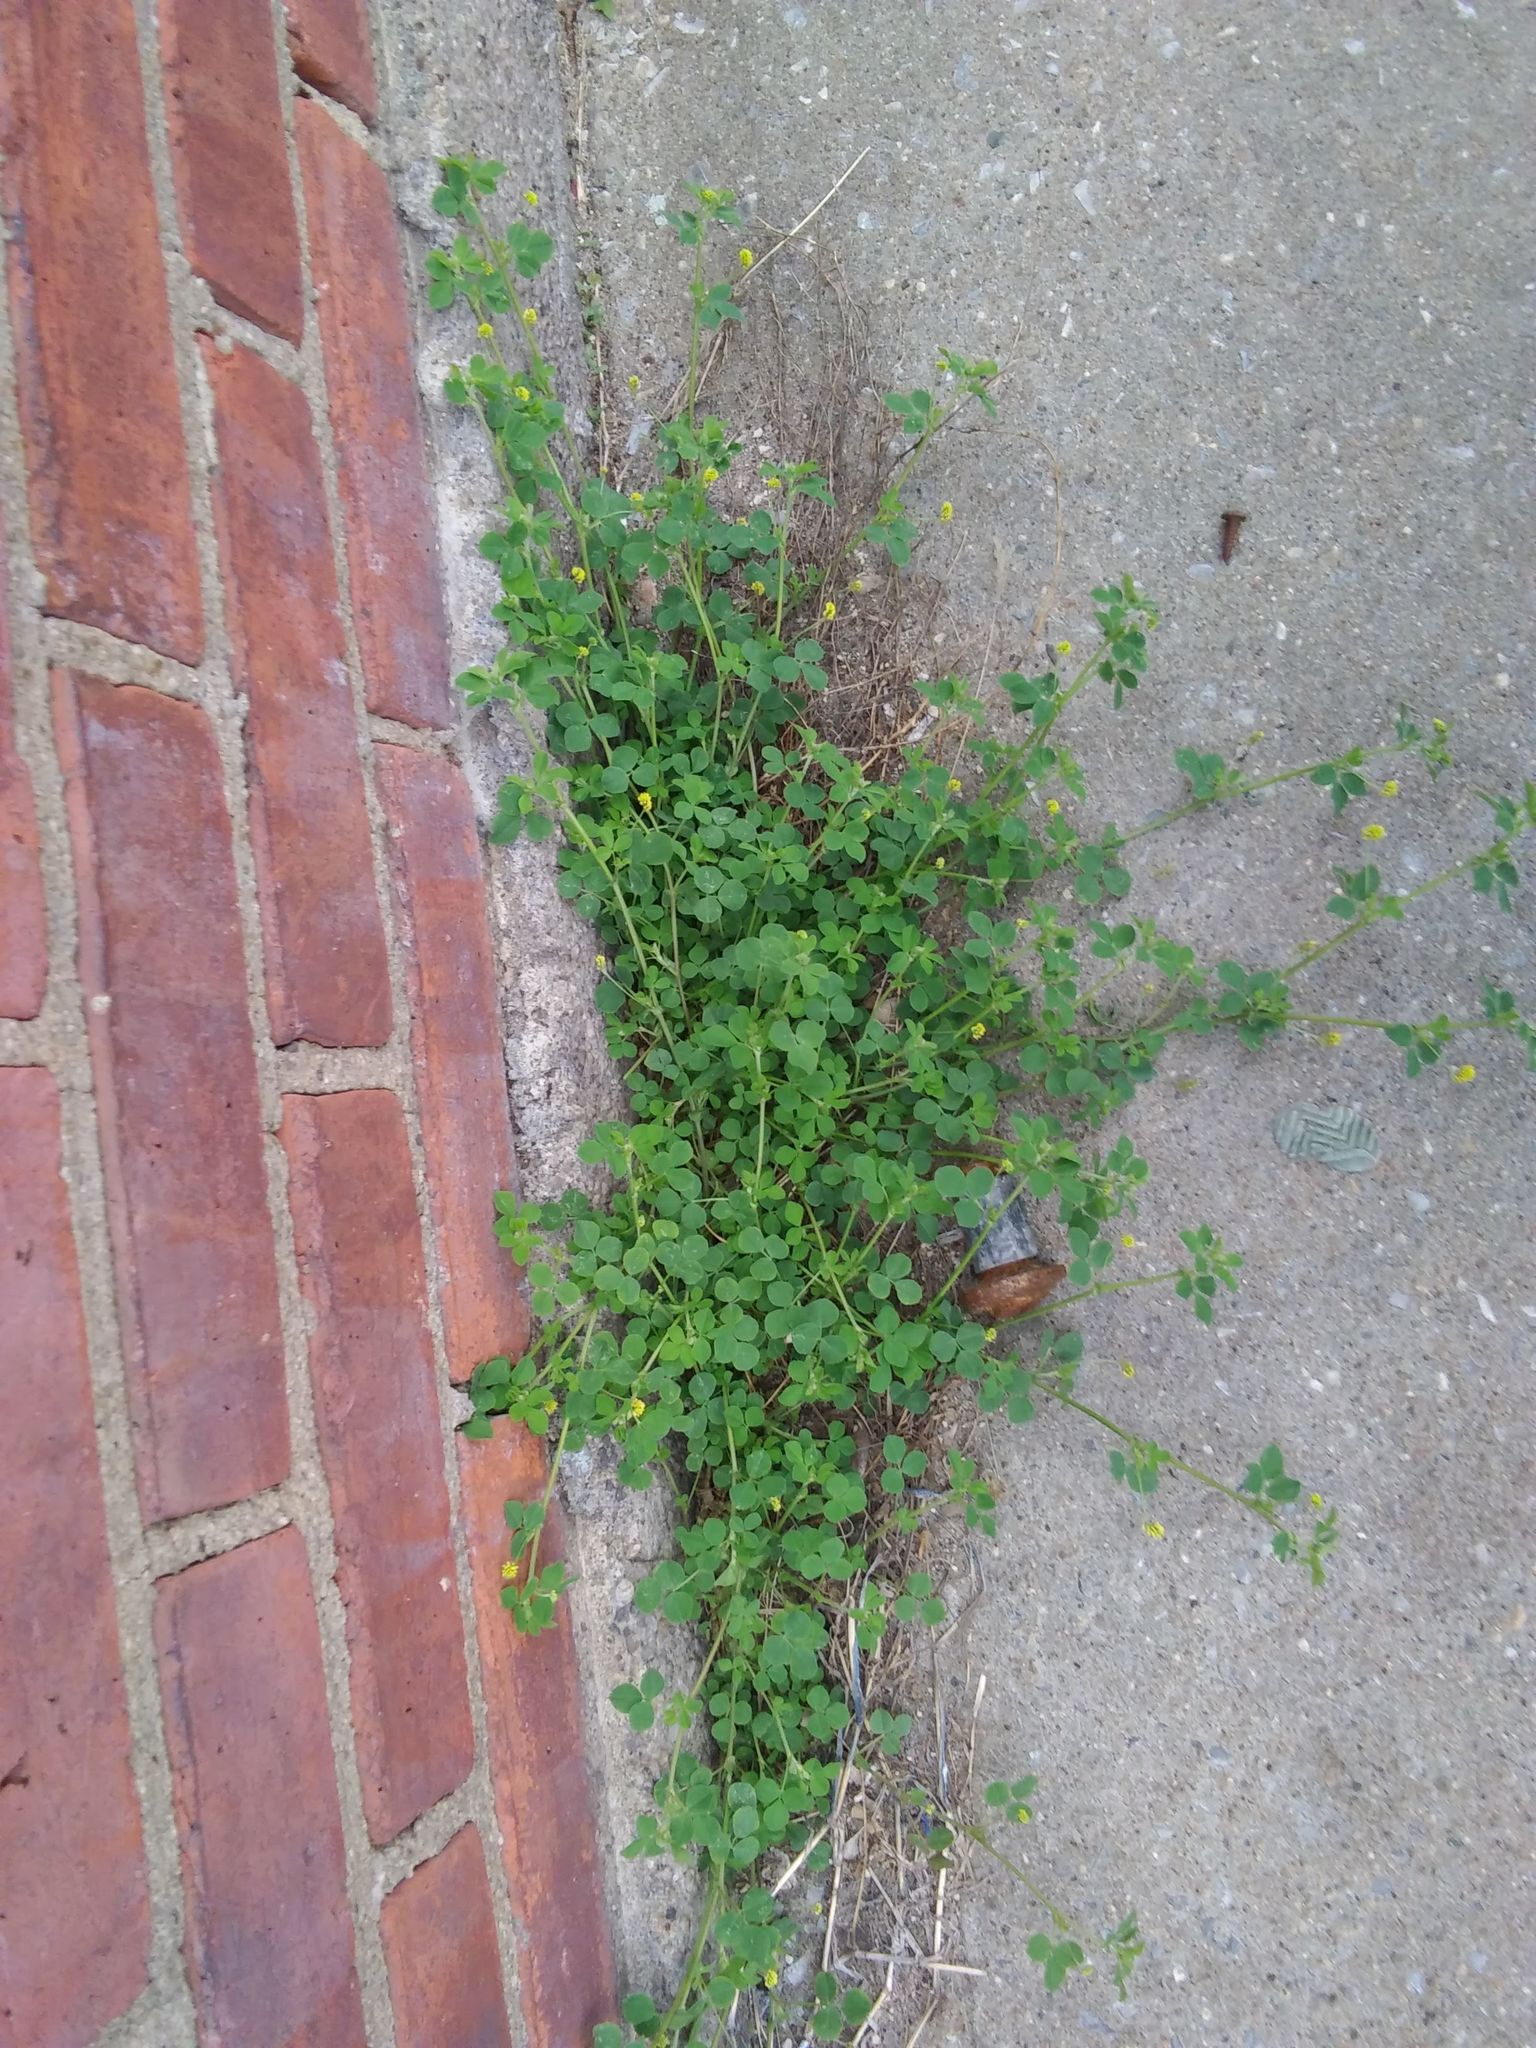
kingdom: Plantae
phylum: Tracheophyta
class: Magnoliopsida
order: Fabales
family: Fabaceae
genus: Medicago
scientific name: Medicago lupulina
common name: Black medick
